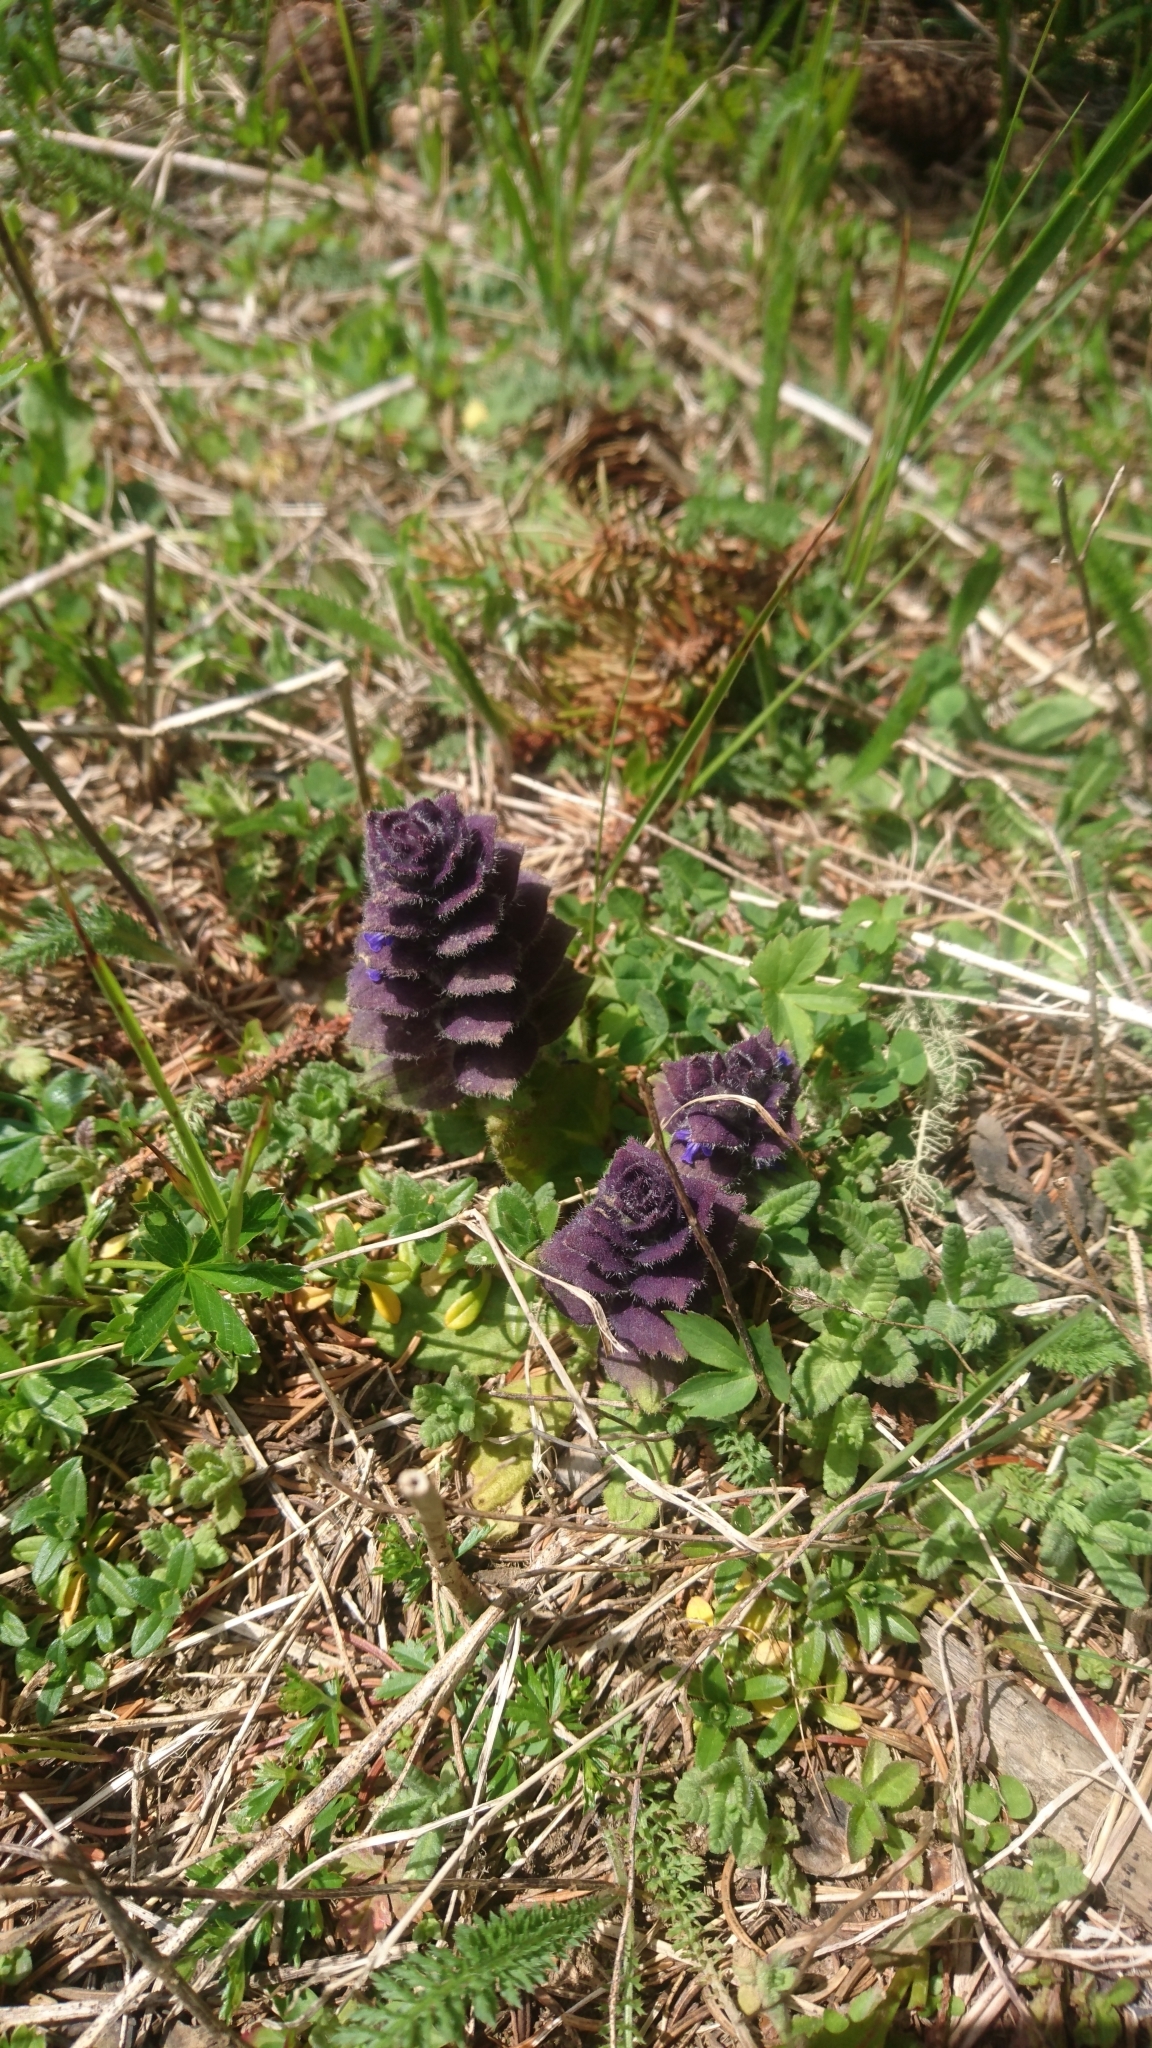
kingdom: Plantae
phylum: Tracheophyta
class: Magnoliopsida
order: Lamiales
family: Lamiaceae
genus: Ajuga
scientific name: Ajuga pyramidalis
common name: Pyramid bugle
